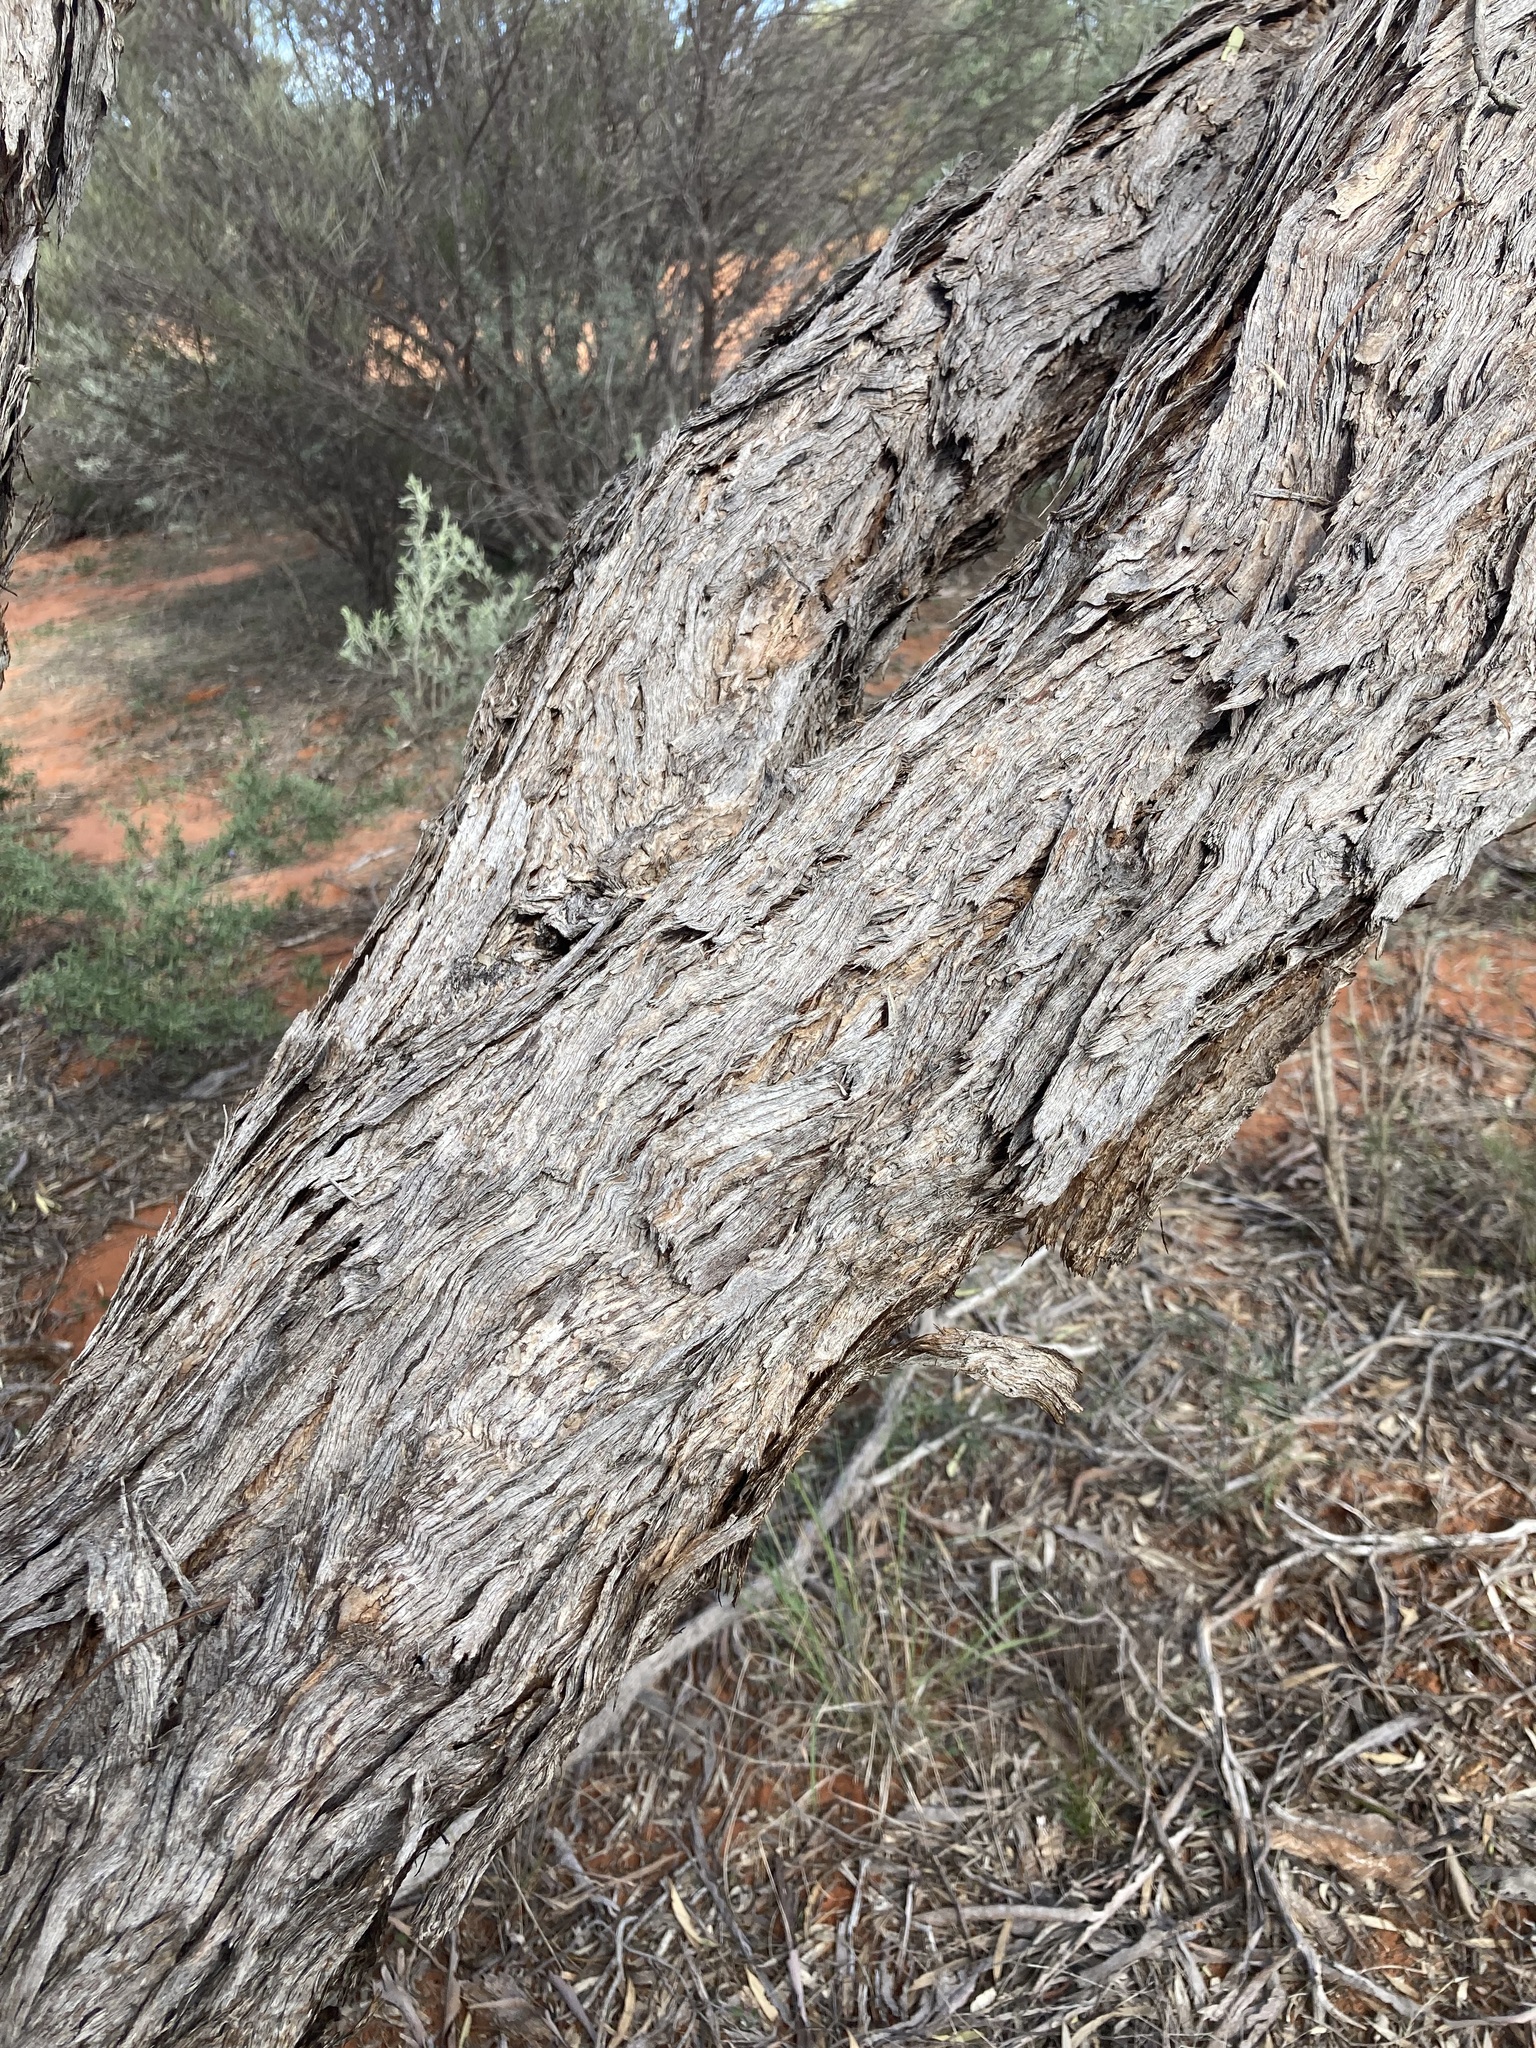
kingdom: Plantae
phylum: Tracheophyta
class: Magnoliopsida
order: Myrtales
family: Myrtaceae
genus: Eucalyptus
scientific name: Eucalyptus mannensis
